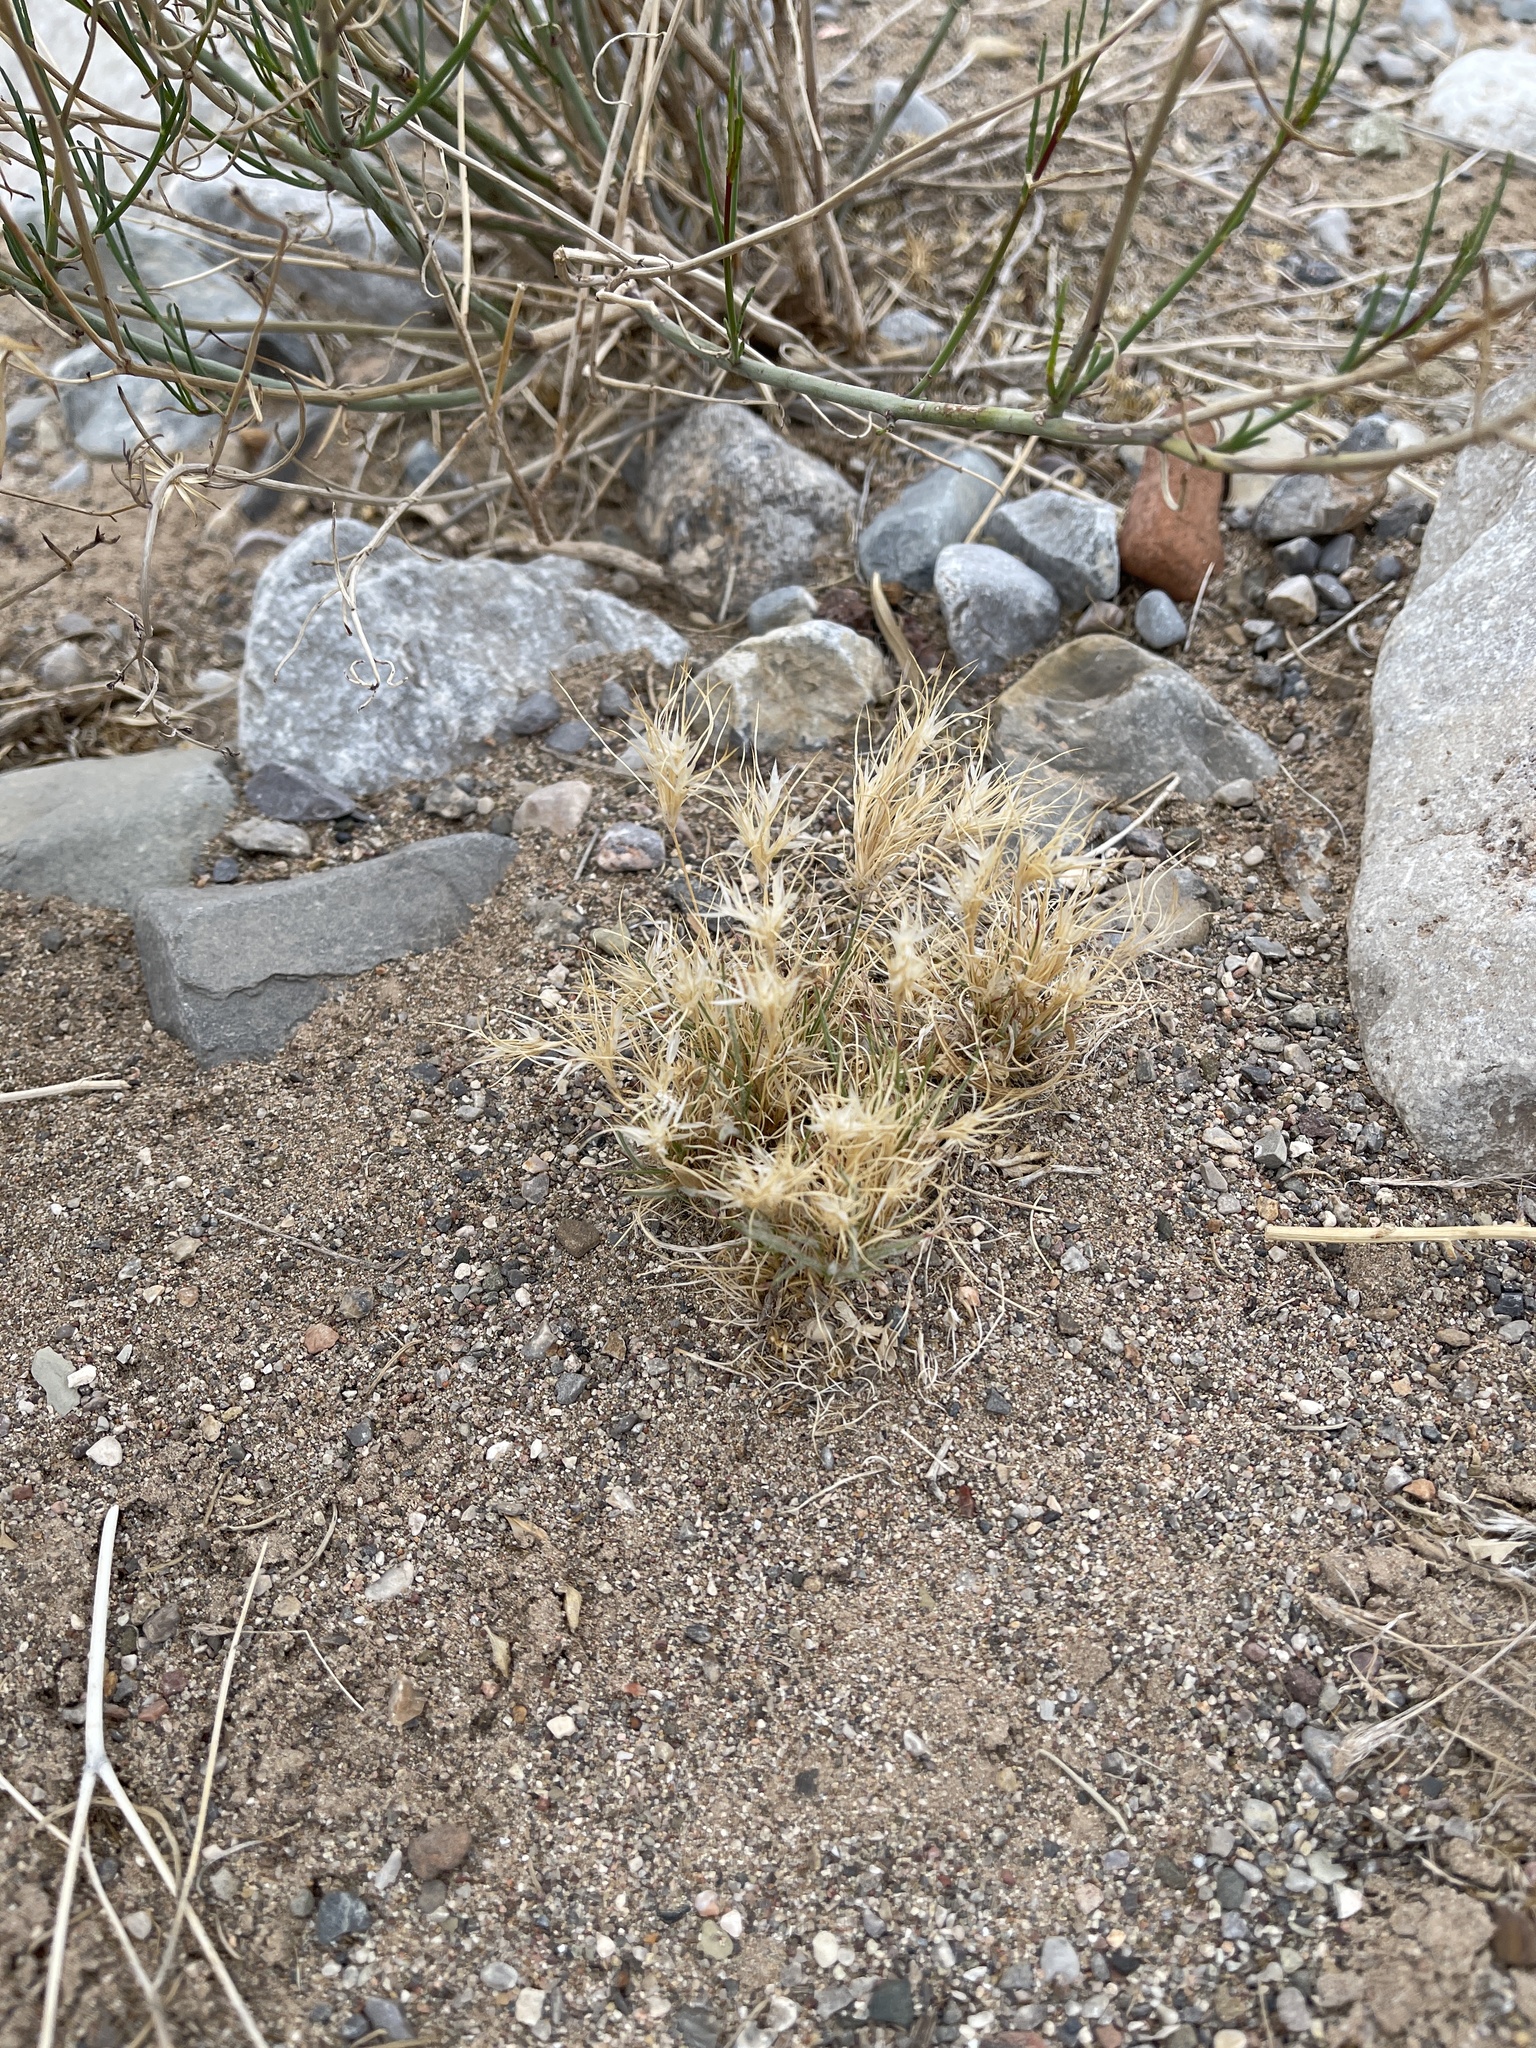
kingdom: Plantae
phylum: Tracheophyta
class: Liliopsida
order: Poales
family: Poaceae
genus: Dasyochloa
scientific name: Dasyochloa pulchella
